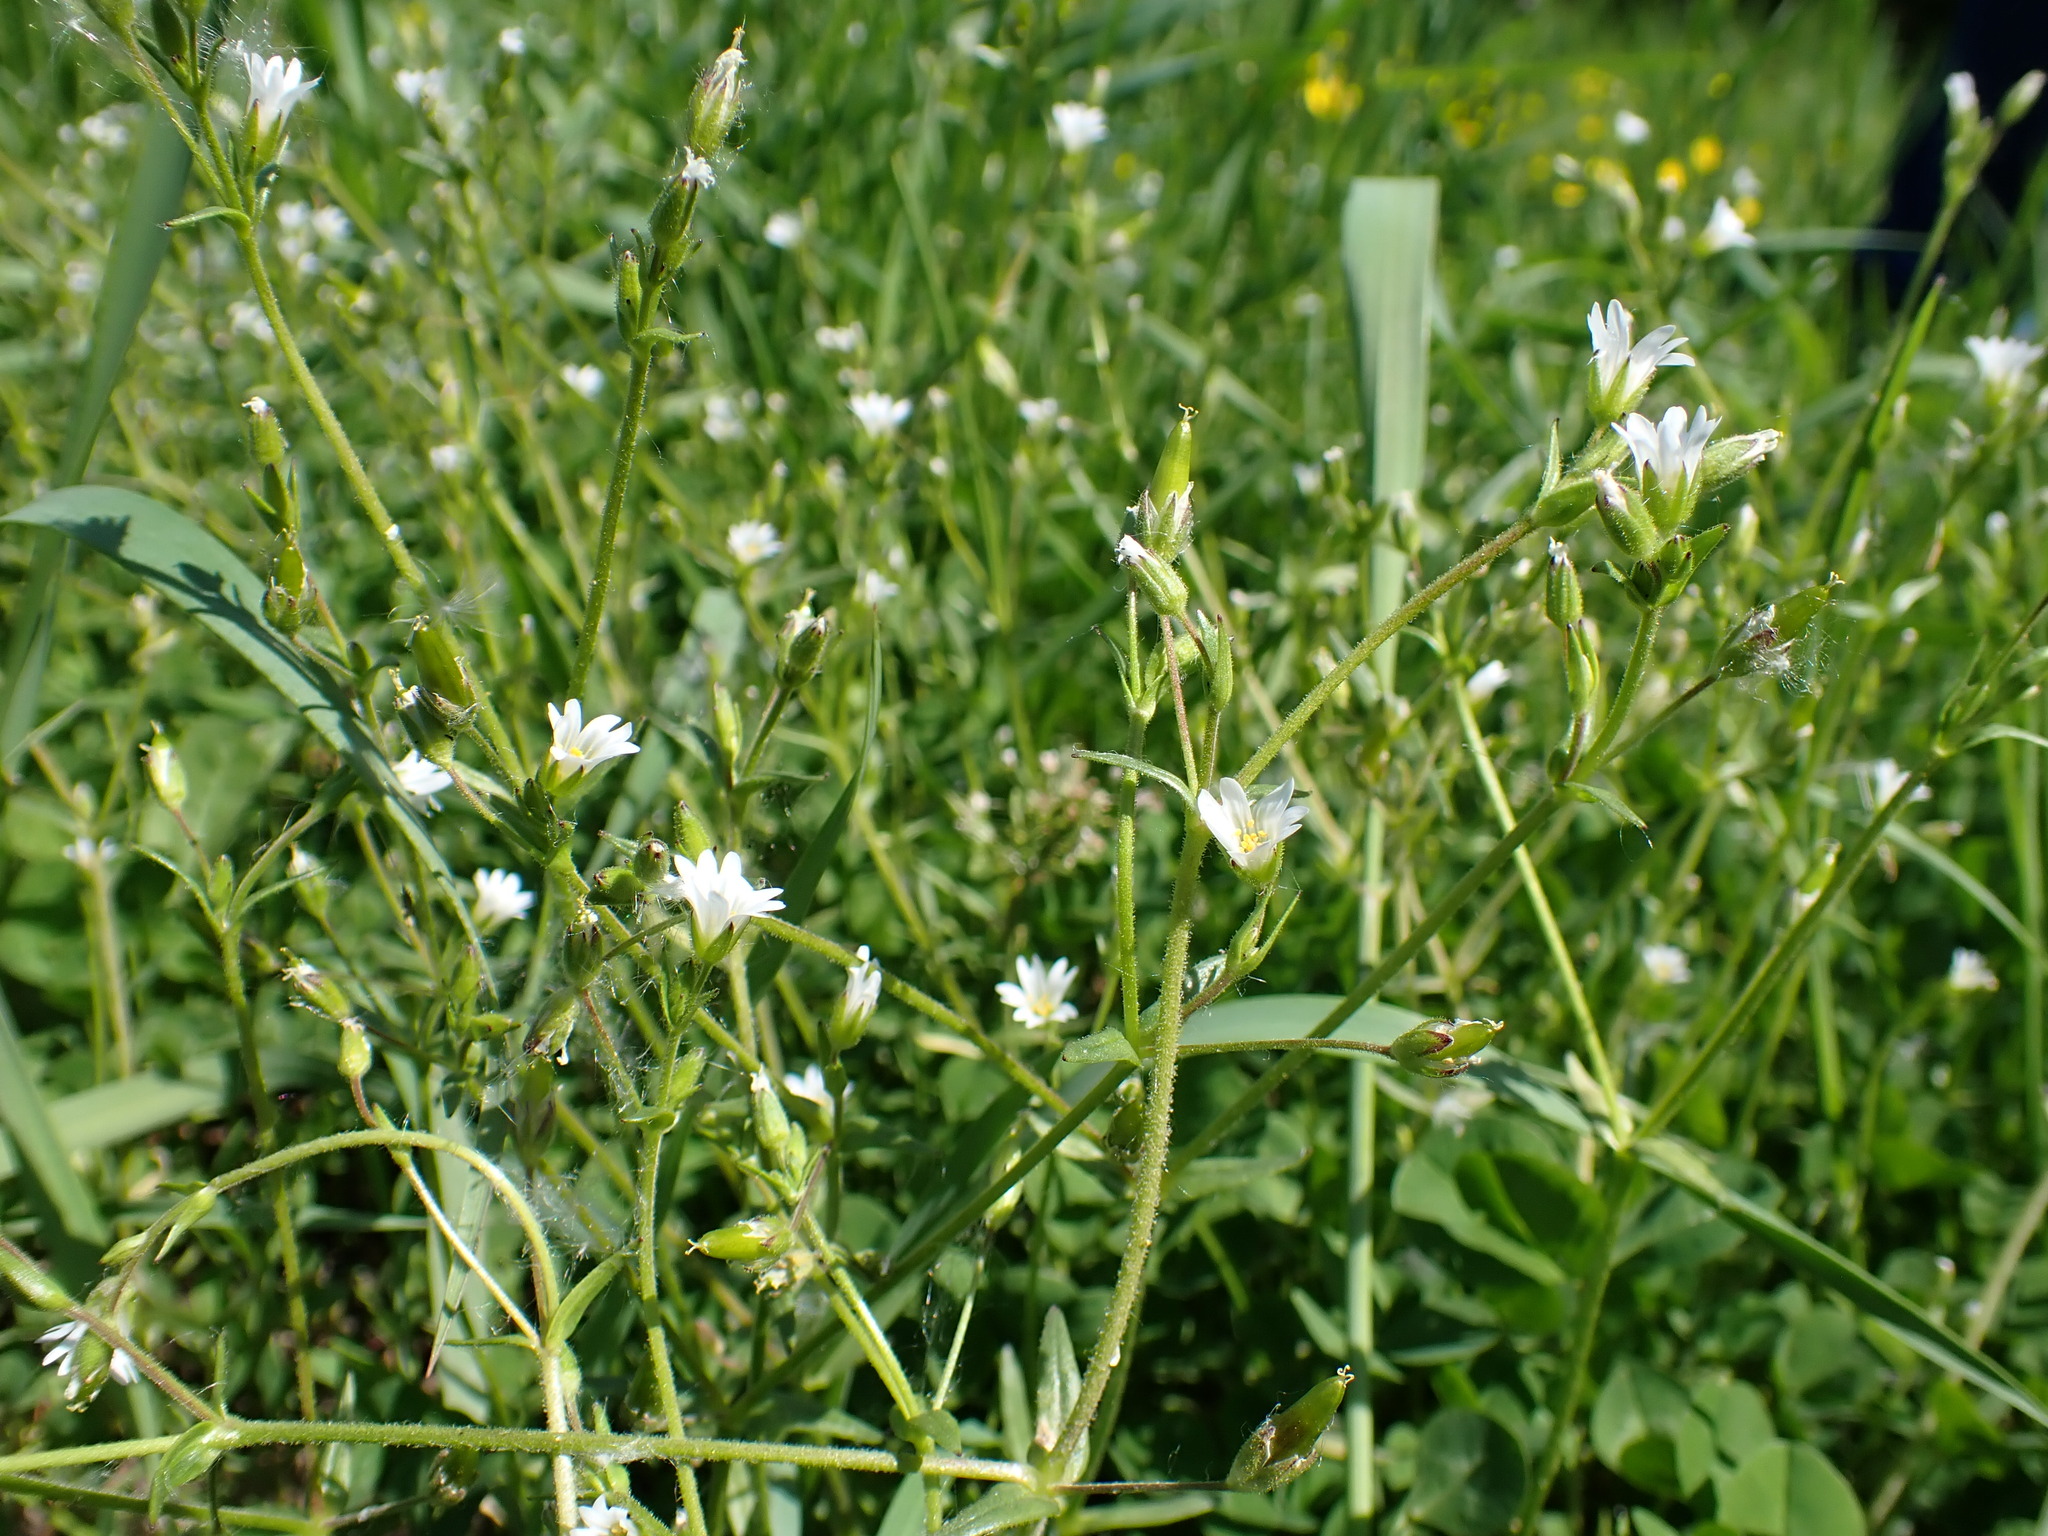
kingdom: Plantae
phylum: Tracheophyta
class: Magnoliopsida
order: Caryophyllales
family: Caryophyllaceae
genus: Dichodon
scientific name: Dichodon viscidum
